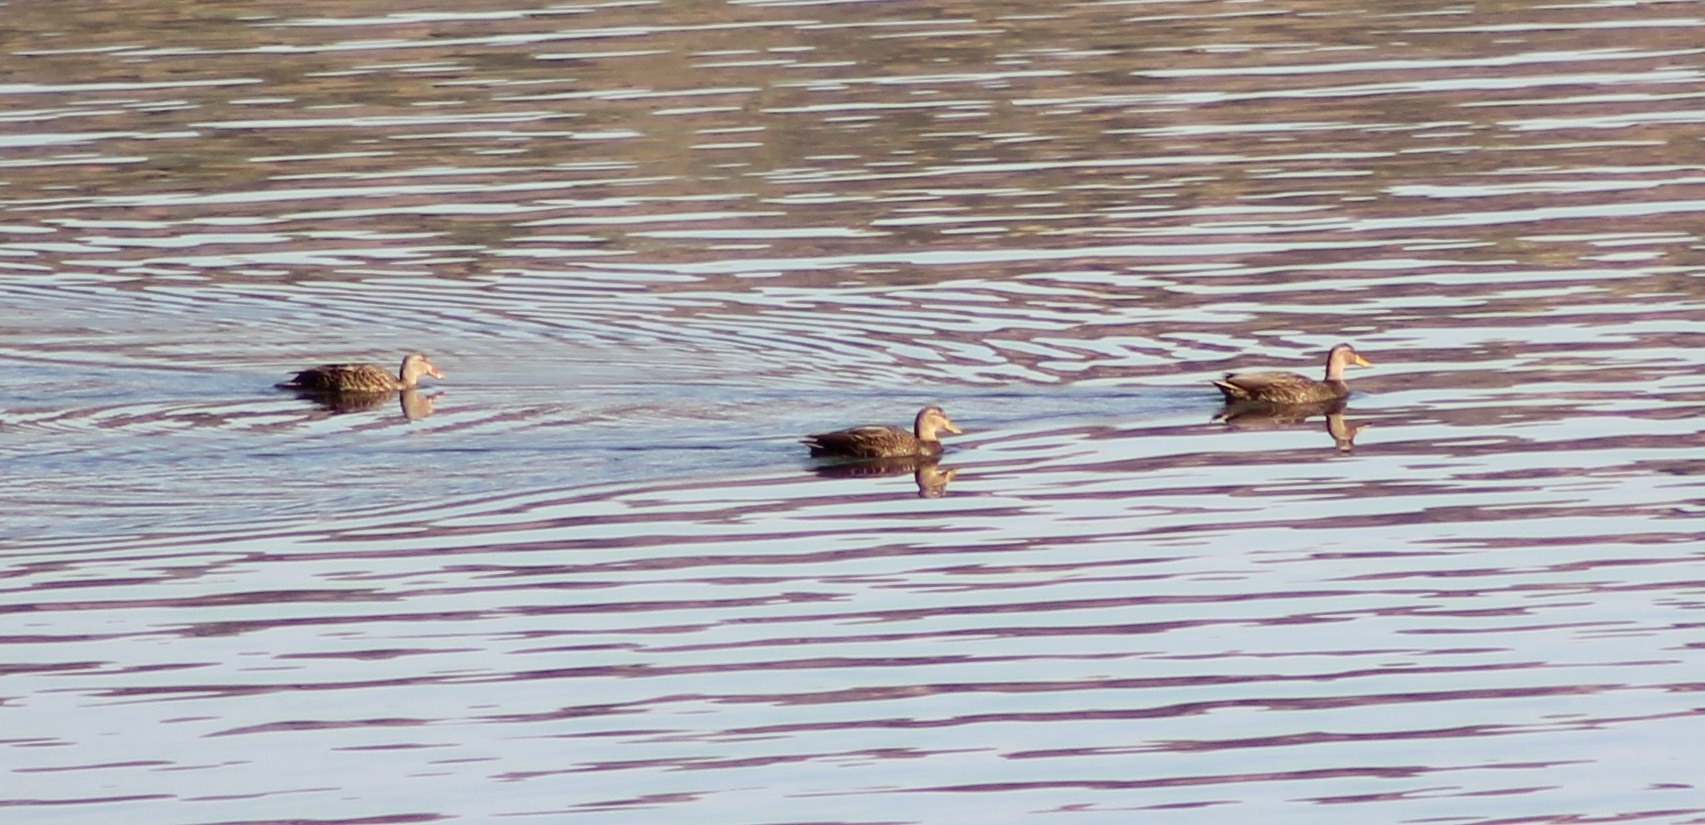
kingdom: Animalia
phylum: Chordata
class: Aves
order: Anseriformes
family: Anatidae
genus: Anas
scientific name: Anas diazi
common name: Mexican duck
